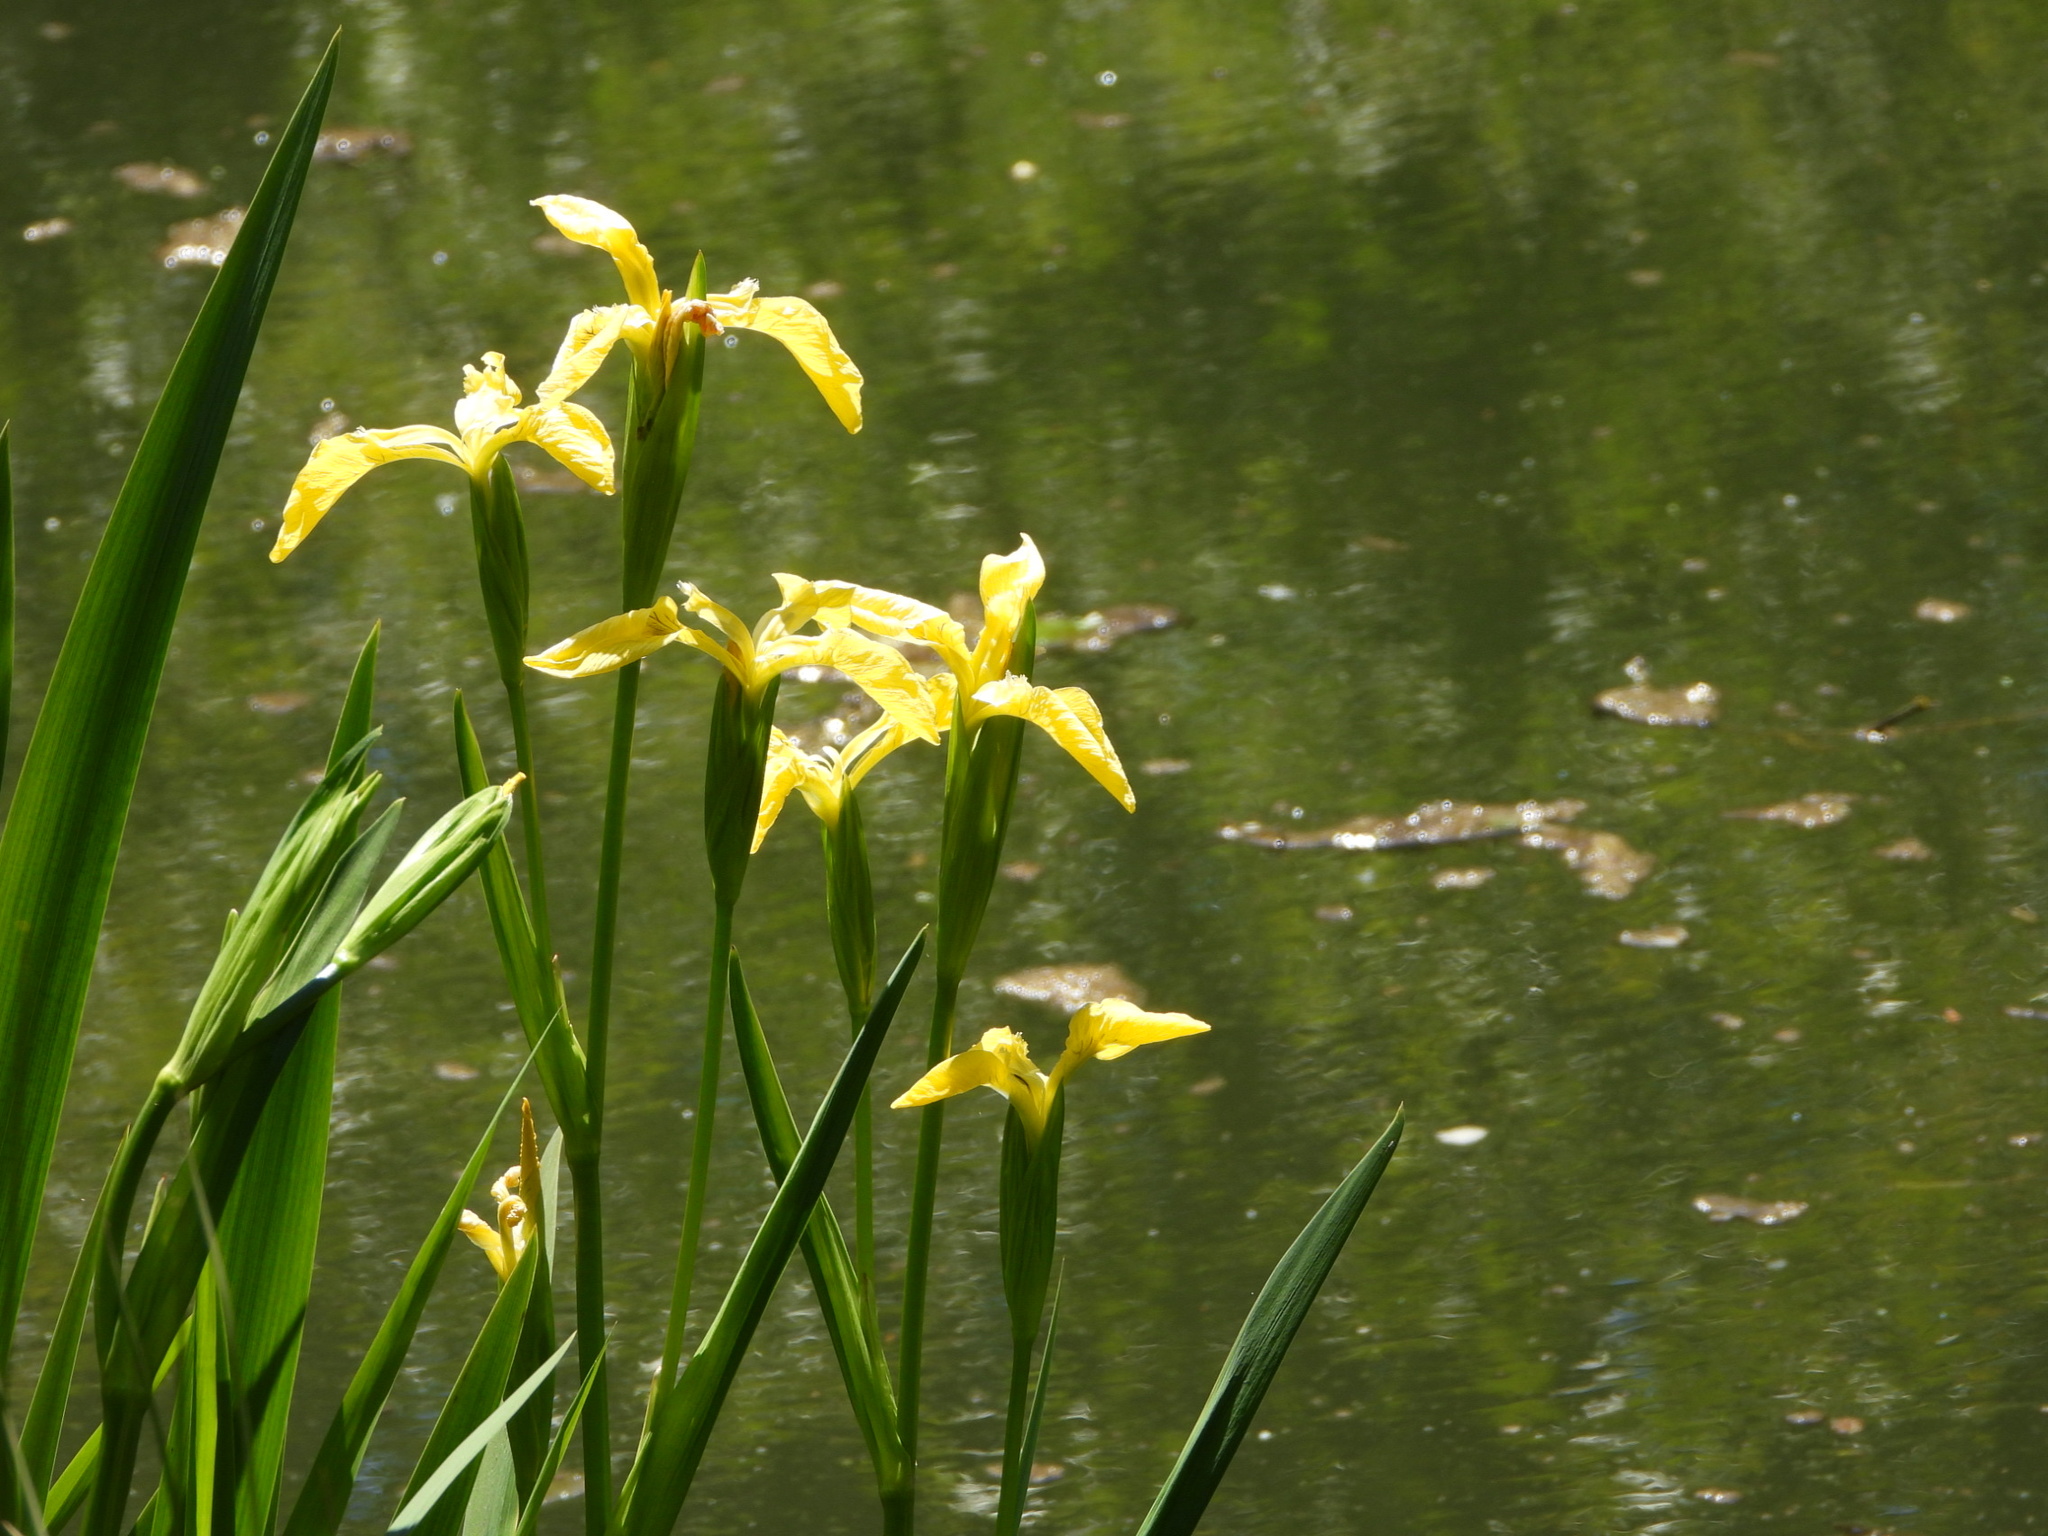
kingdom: Plantae
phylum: Tracheophyta
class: Liliopsida
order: Asparagales
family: Iridaceae
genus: Iris
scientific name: Iris pseudacorus
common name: Yellow flag
